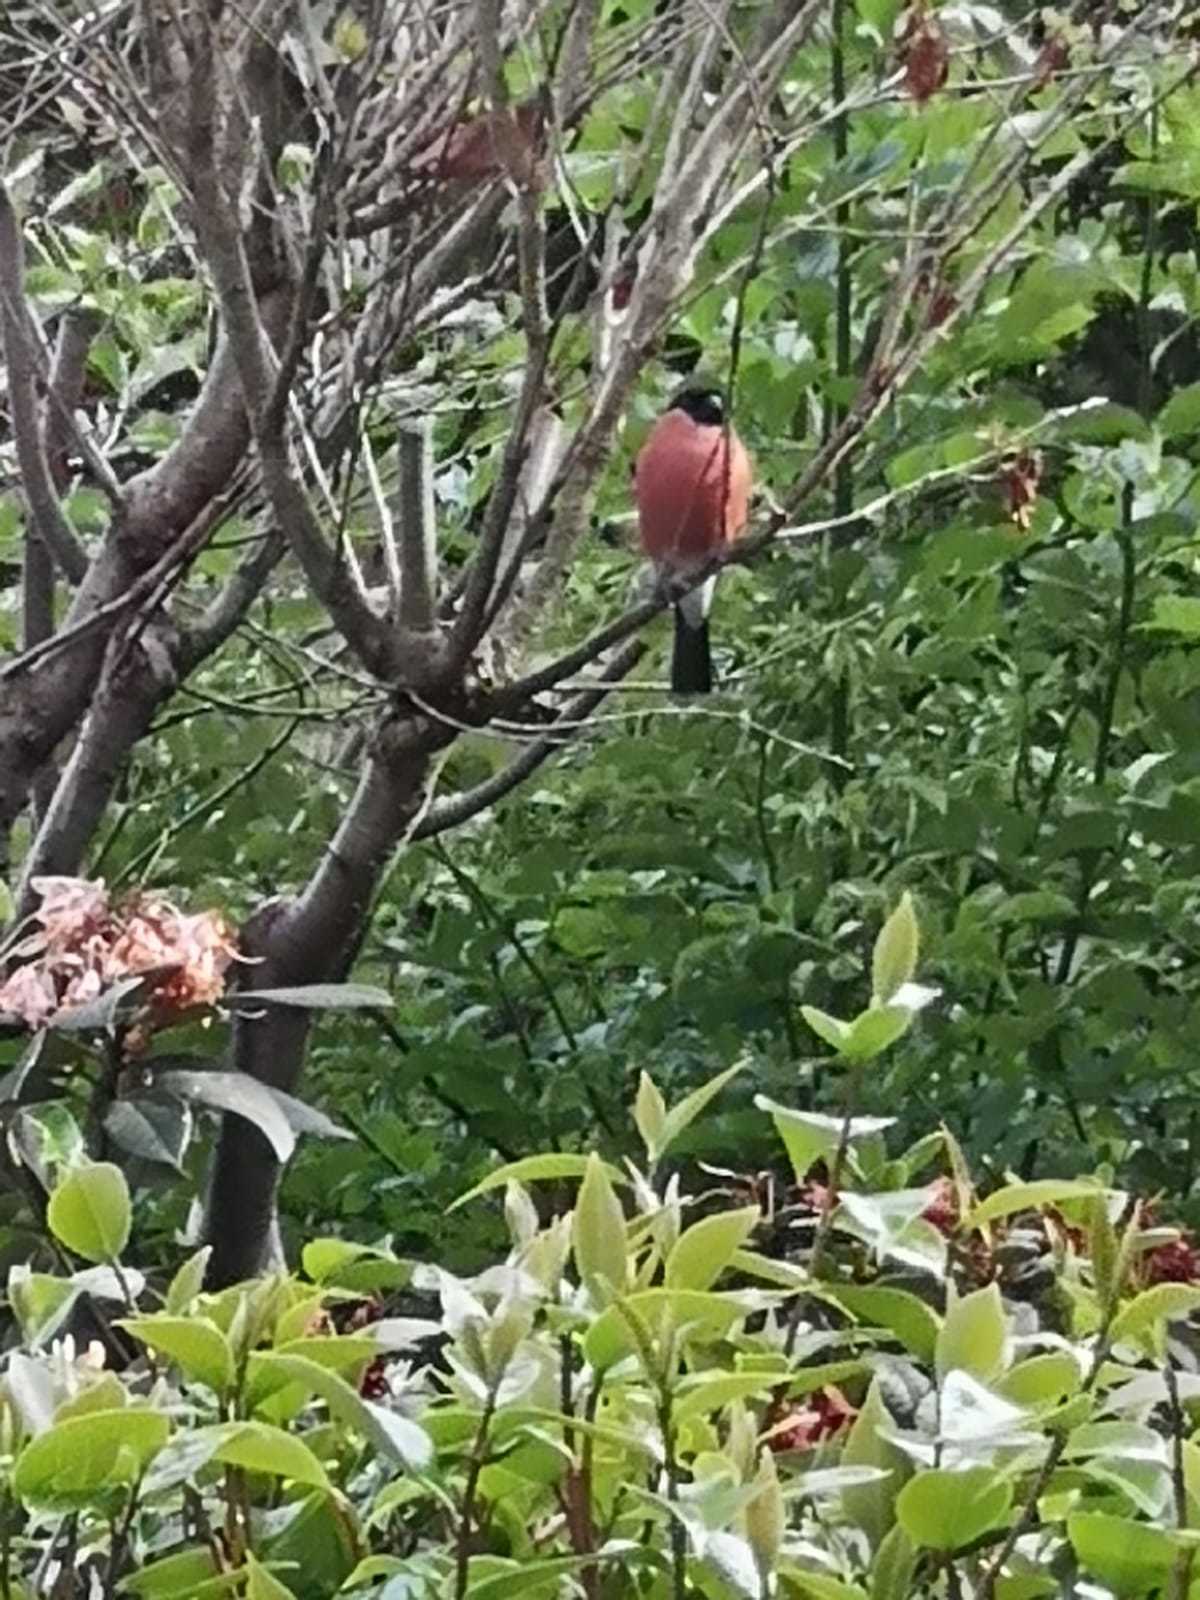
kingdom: Animalia
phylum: Chordata
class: Aves
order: Passeriformes
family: Fringillidae
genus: Pyrrhula
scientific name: Pyrrhula pyrrhula
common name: Eurasian bullfinch
